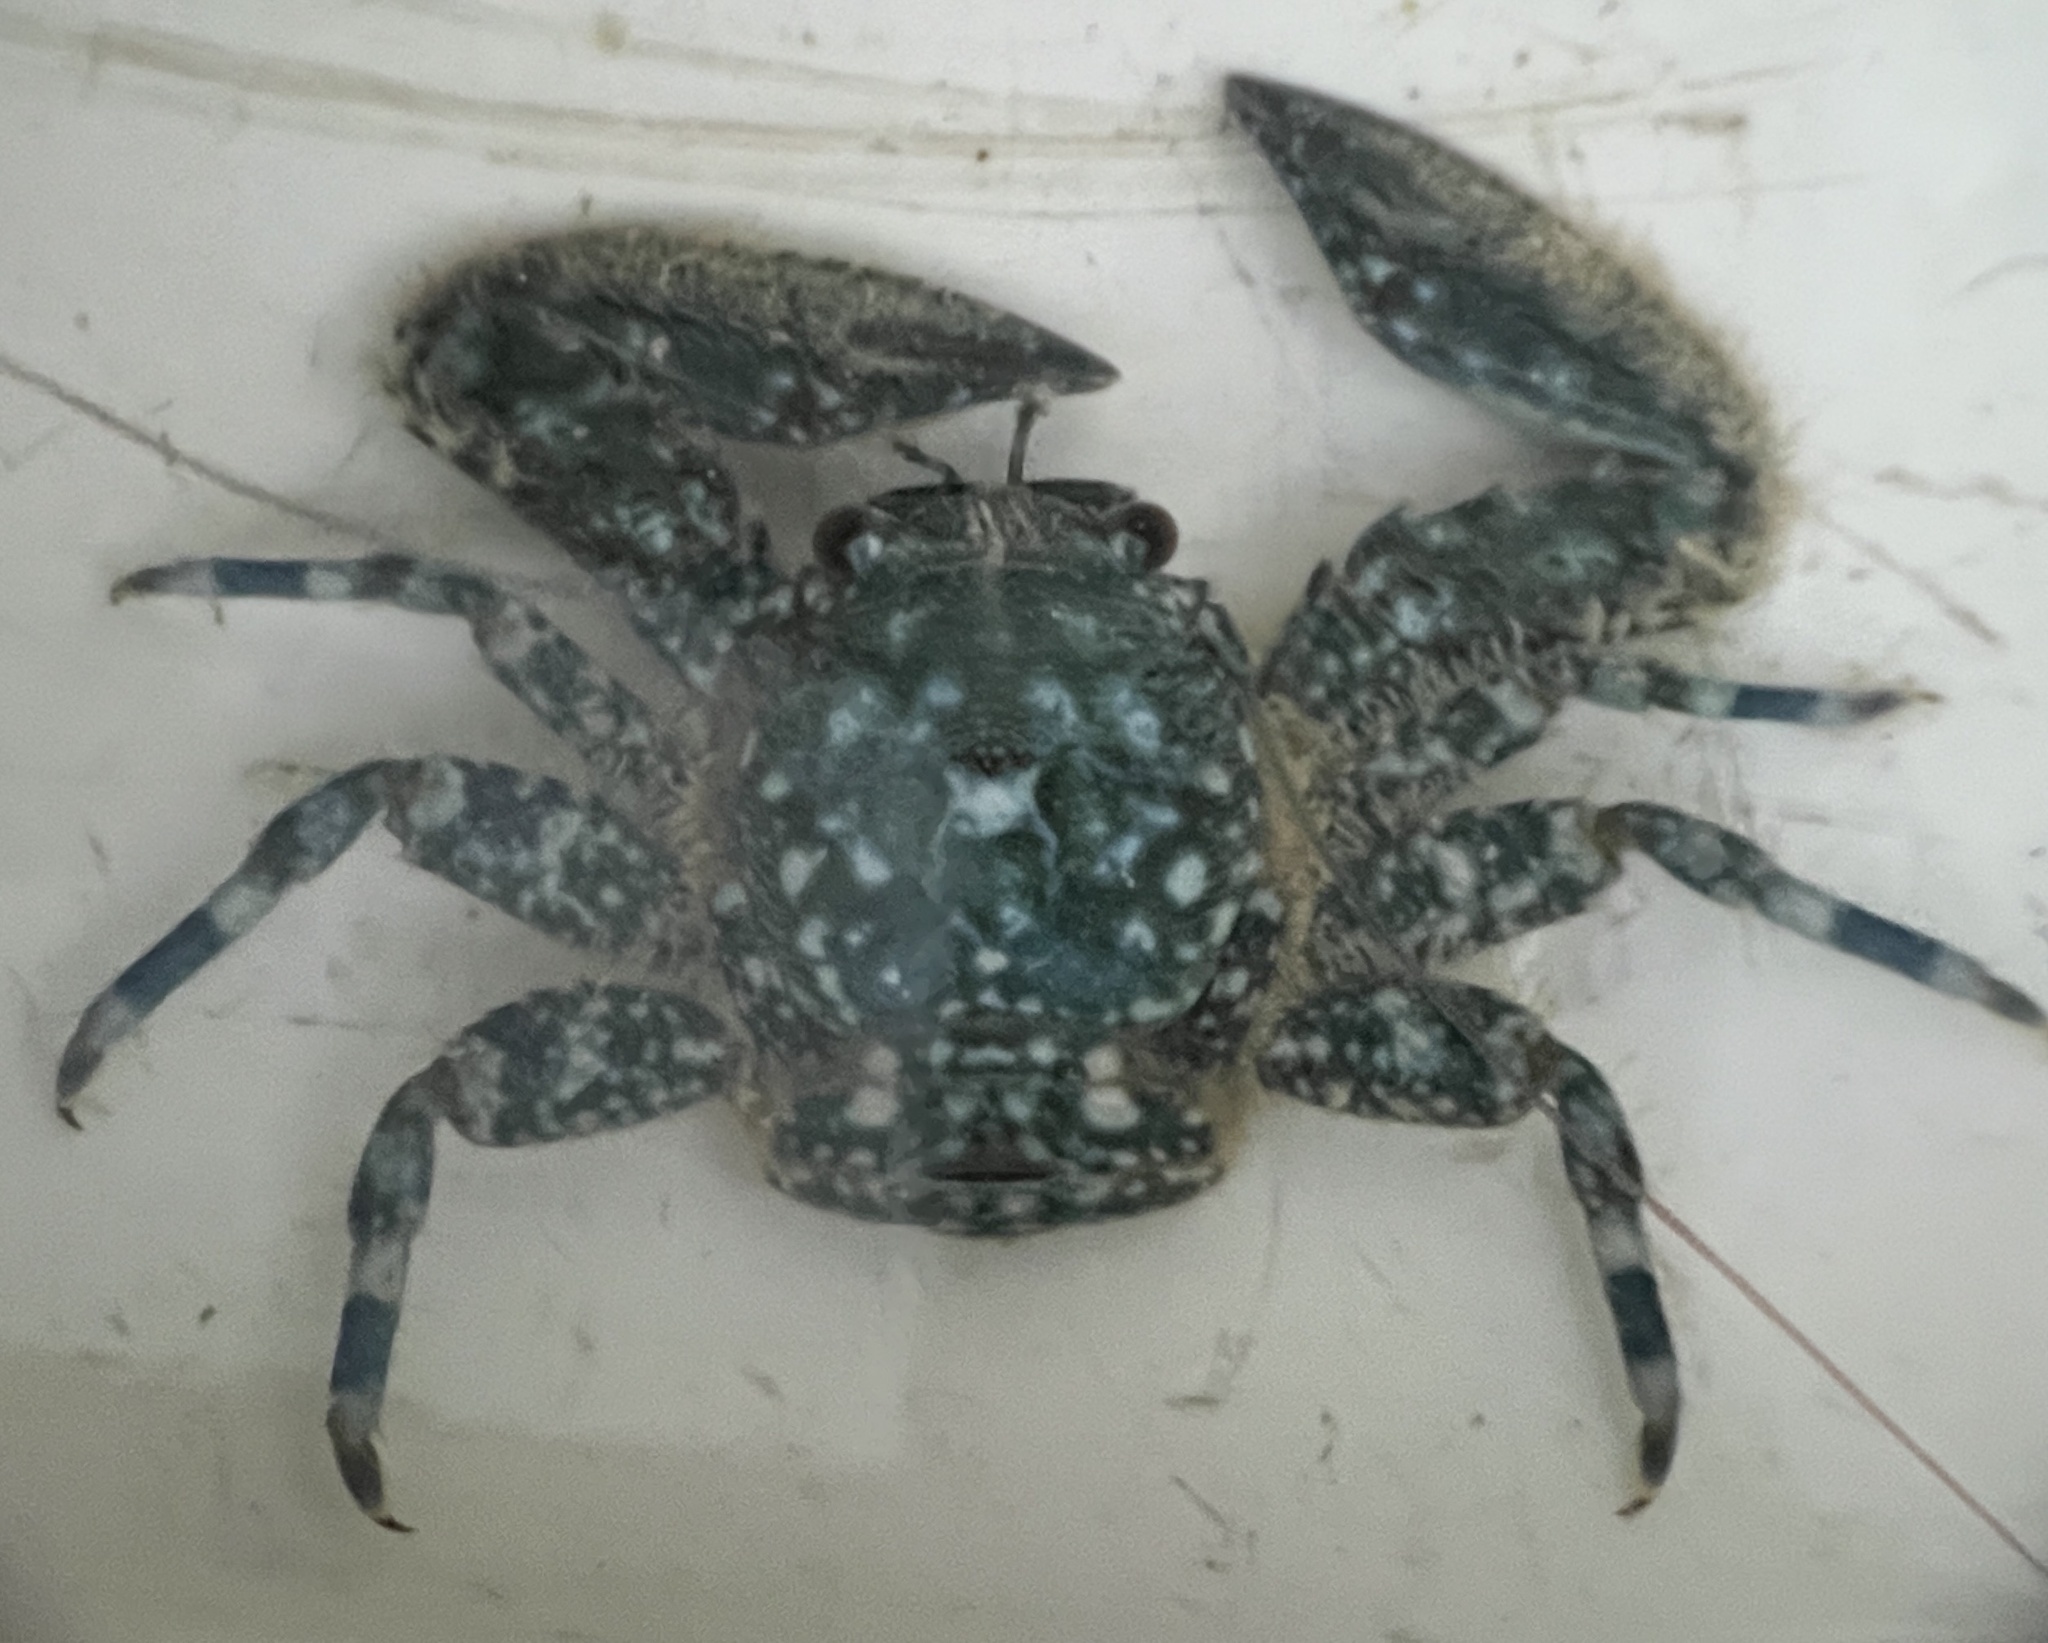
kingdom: Animalia
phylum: Arthropoda
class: Malacostraca
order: Decapoda
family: Porcellanidae
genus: Petrolisthes
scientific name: Petrolisthes armatus
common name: Green porcelain crab
